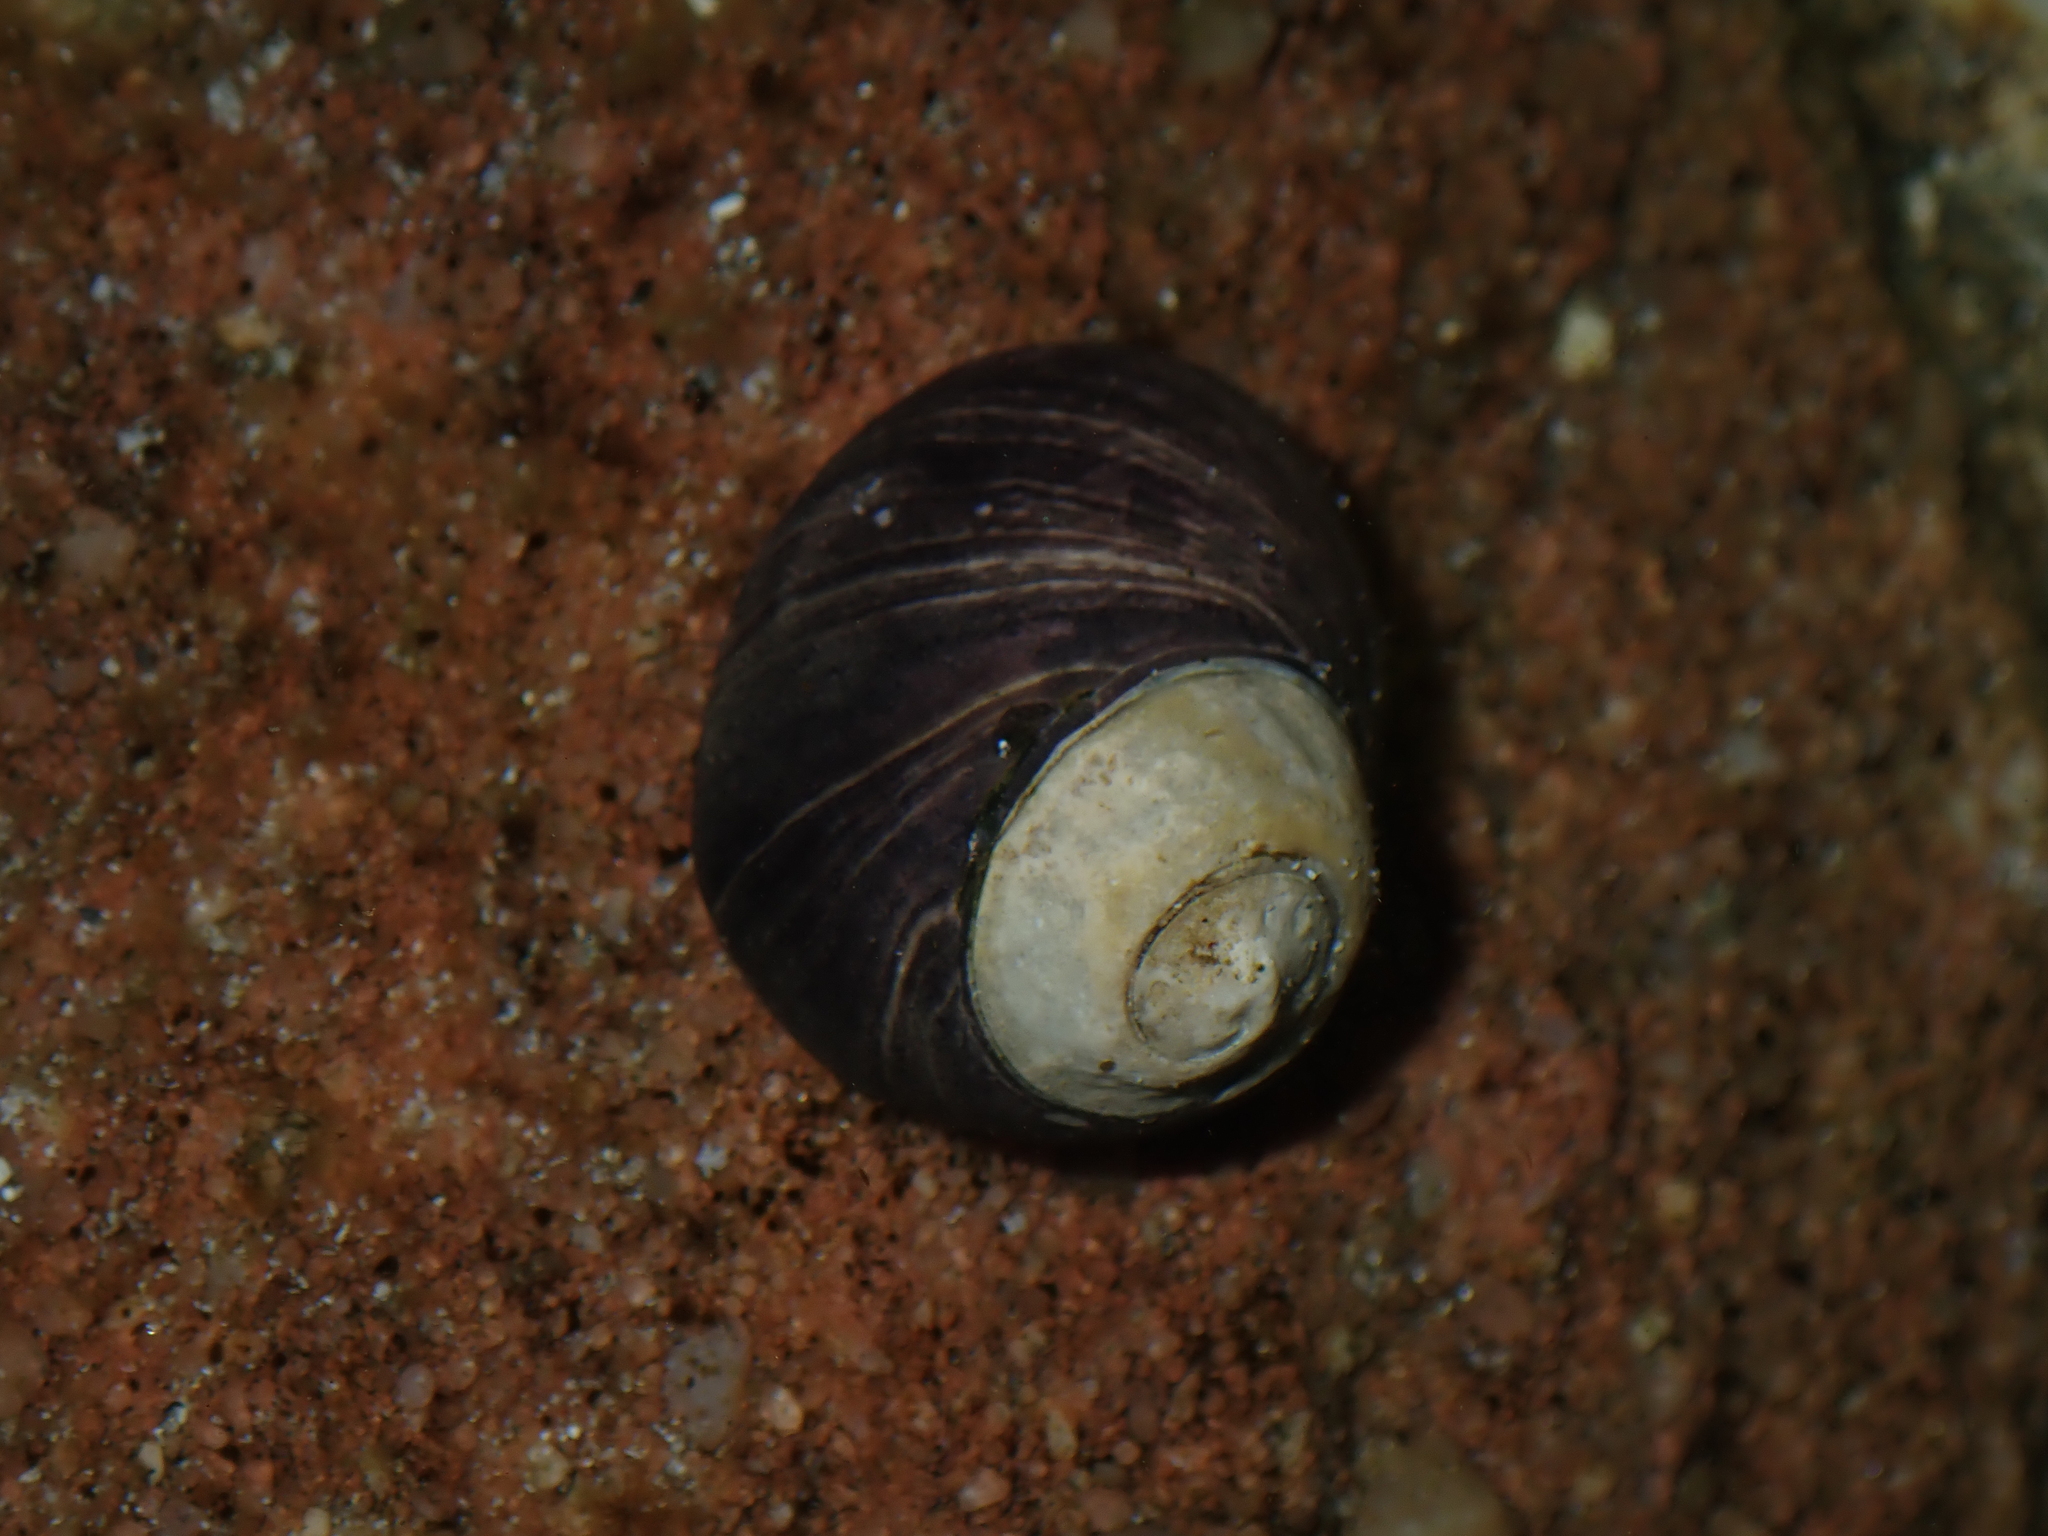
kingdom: Animalia
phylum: Mollusca
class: Gastropoda
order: Trochida
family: Trochidae
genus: Austrocochlea
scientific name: Austrocochlea rudis
